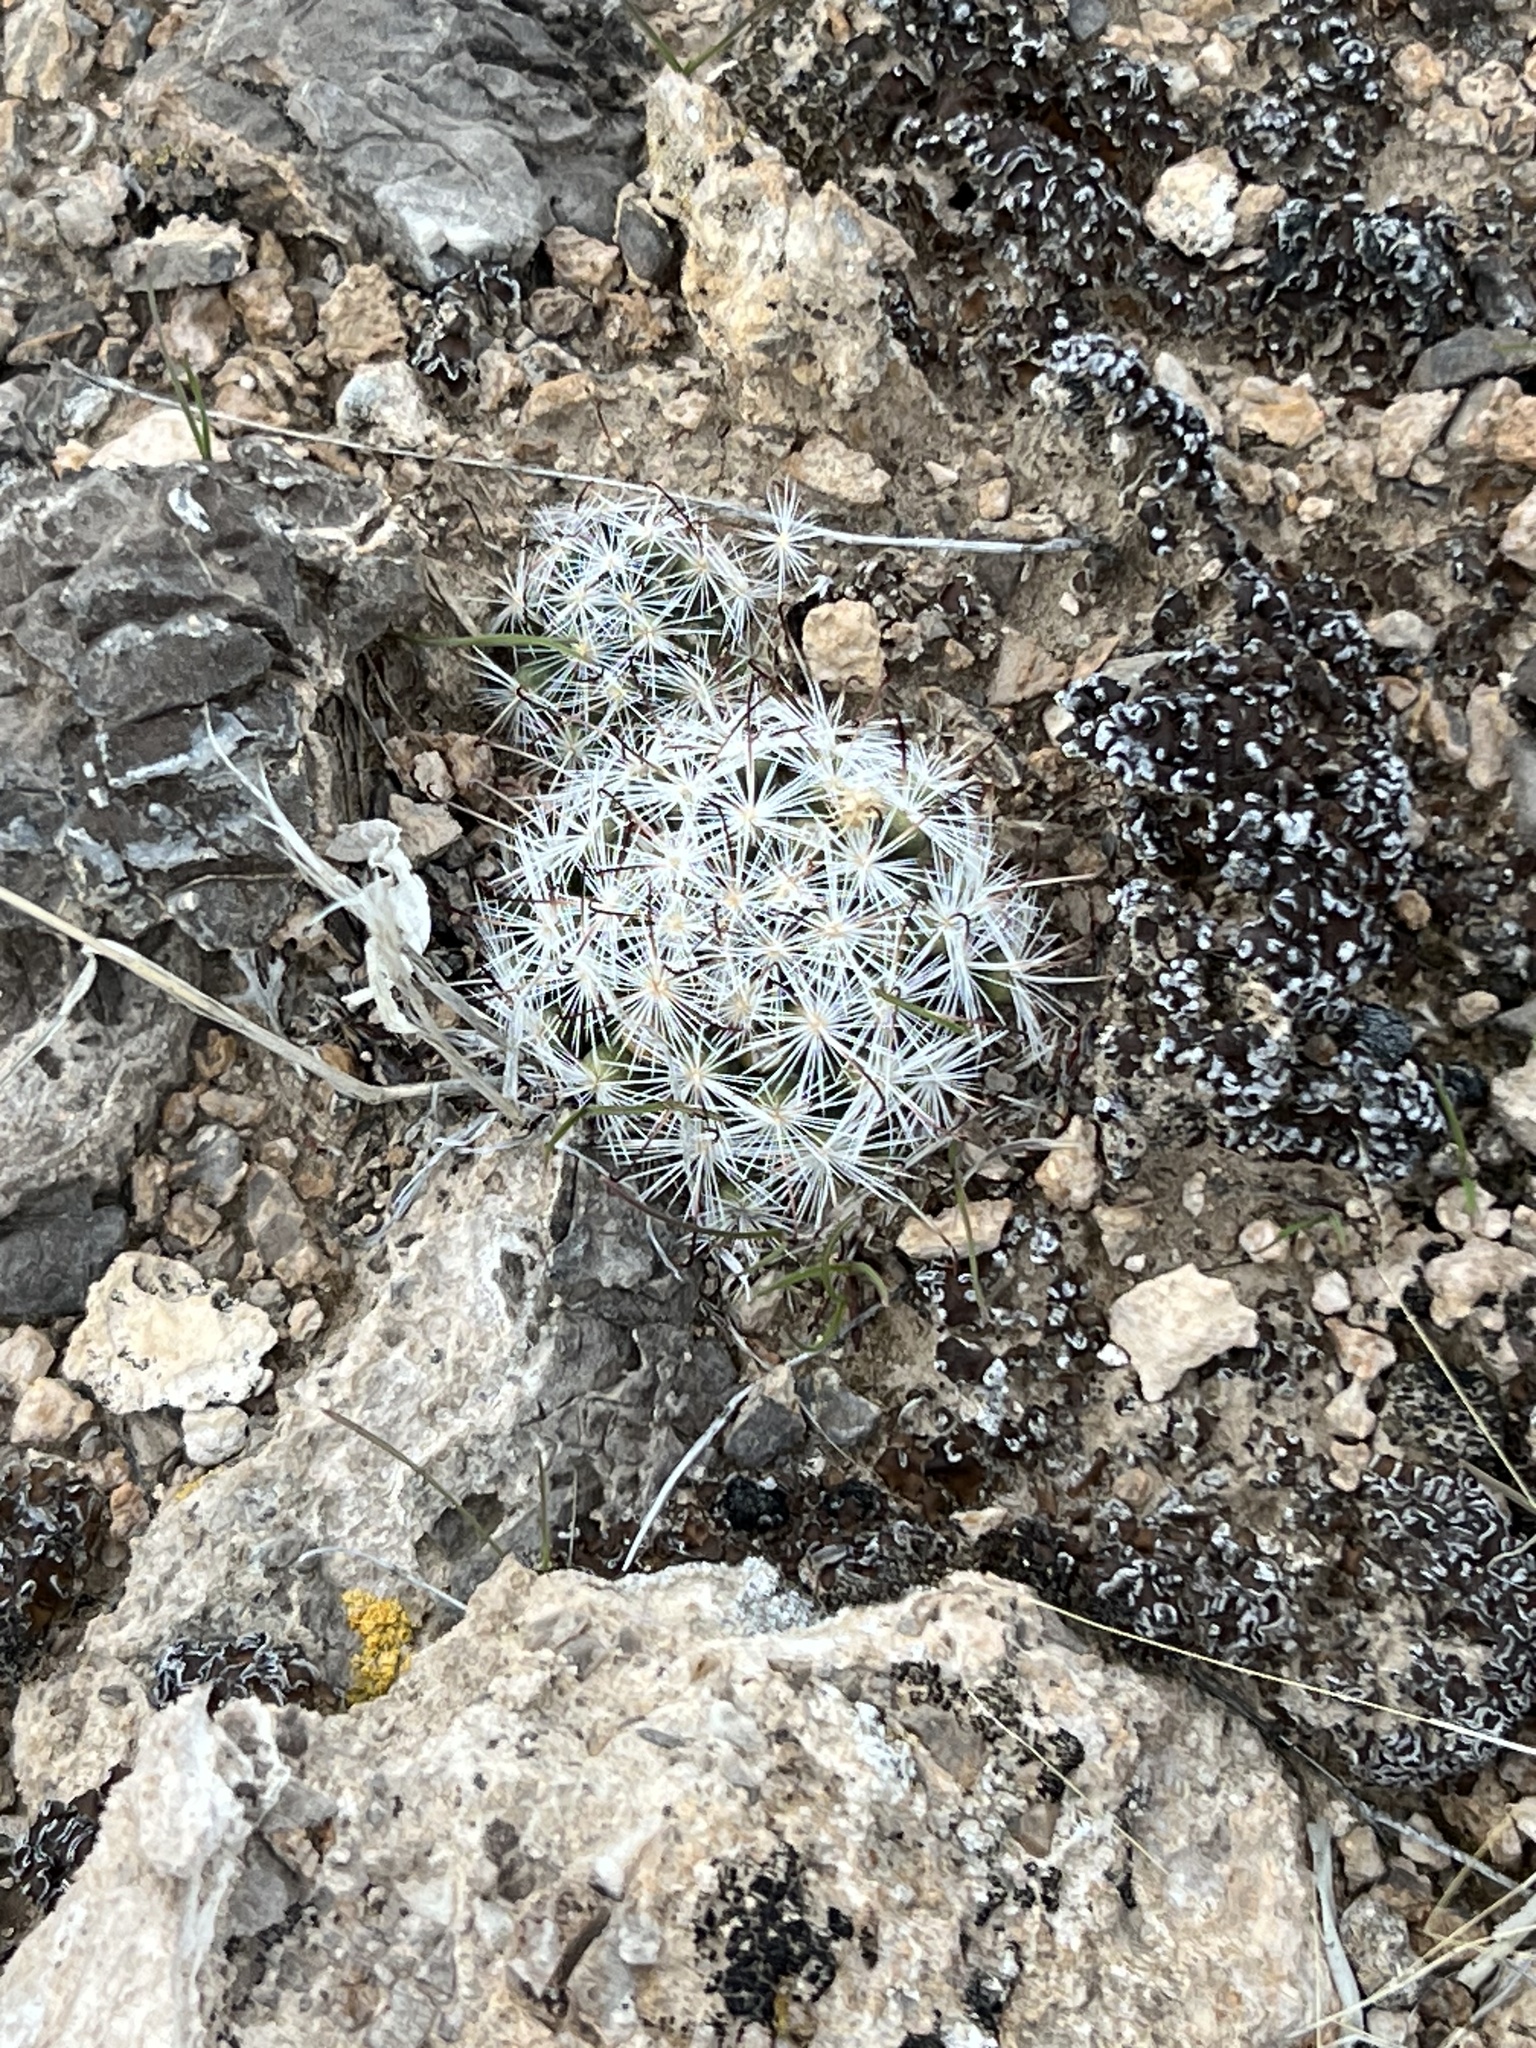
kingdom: Plantae
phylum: Tracheophyta
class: Magnoliopsida
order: Caryophyllales
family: Cactaceae
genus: Cochemiea
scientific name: Cochemiea tetrancistra
